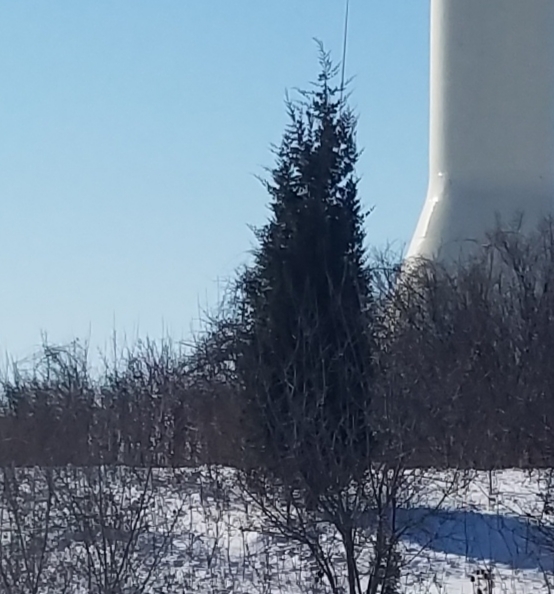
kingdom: Plantae
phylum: Tracheophyta
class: Pinopsida
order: Pinales
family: Cupressaceae
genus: Juniperus
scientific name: Juniperus virginiana
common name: Red juniper
